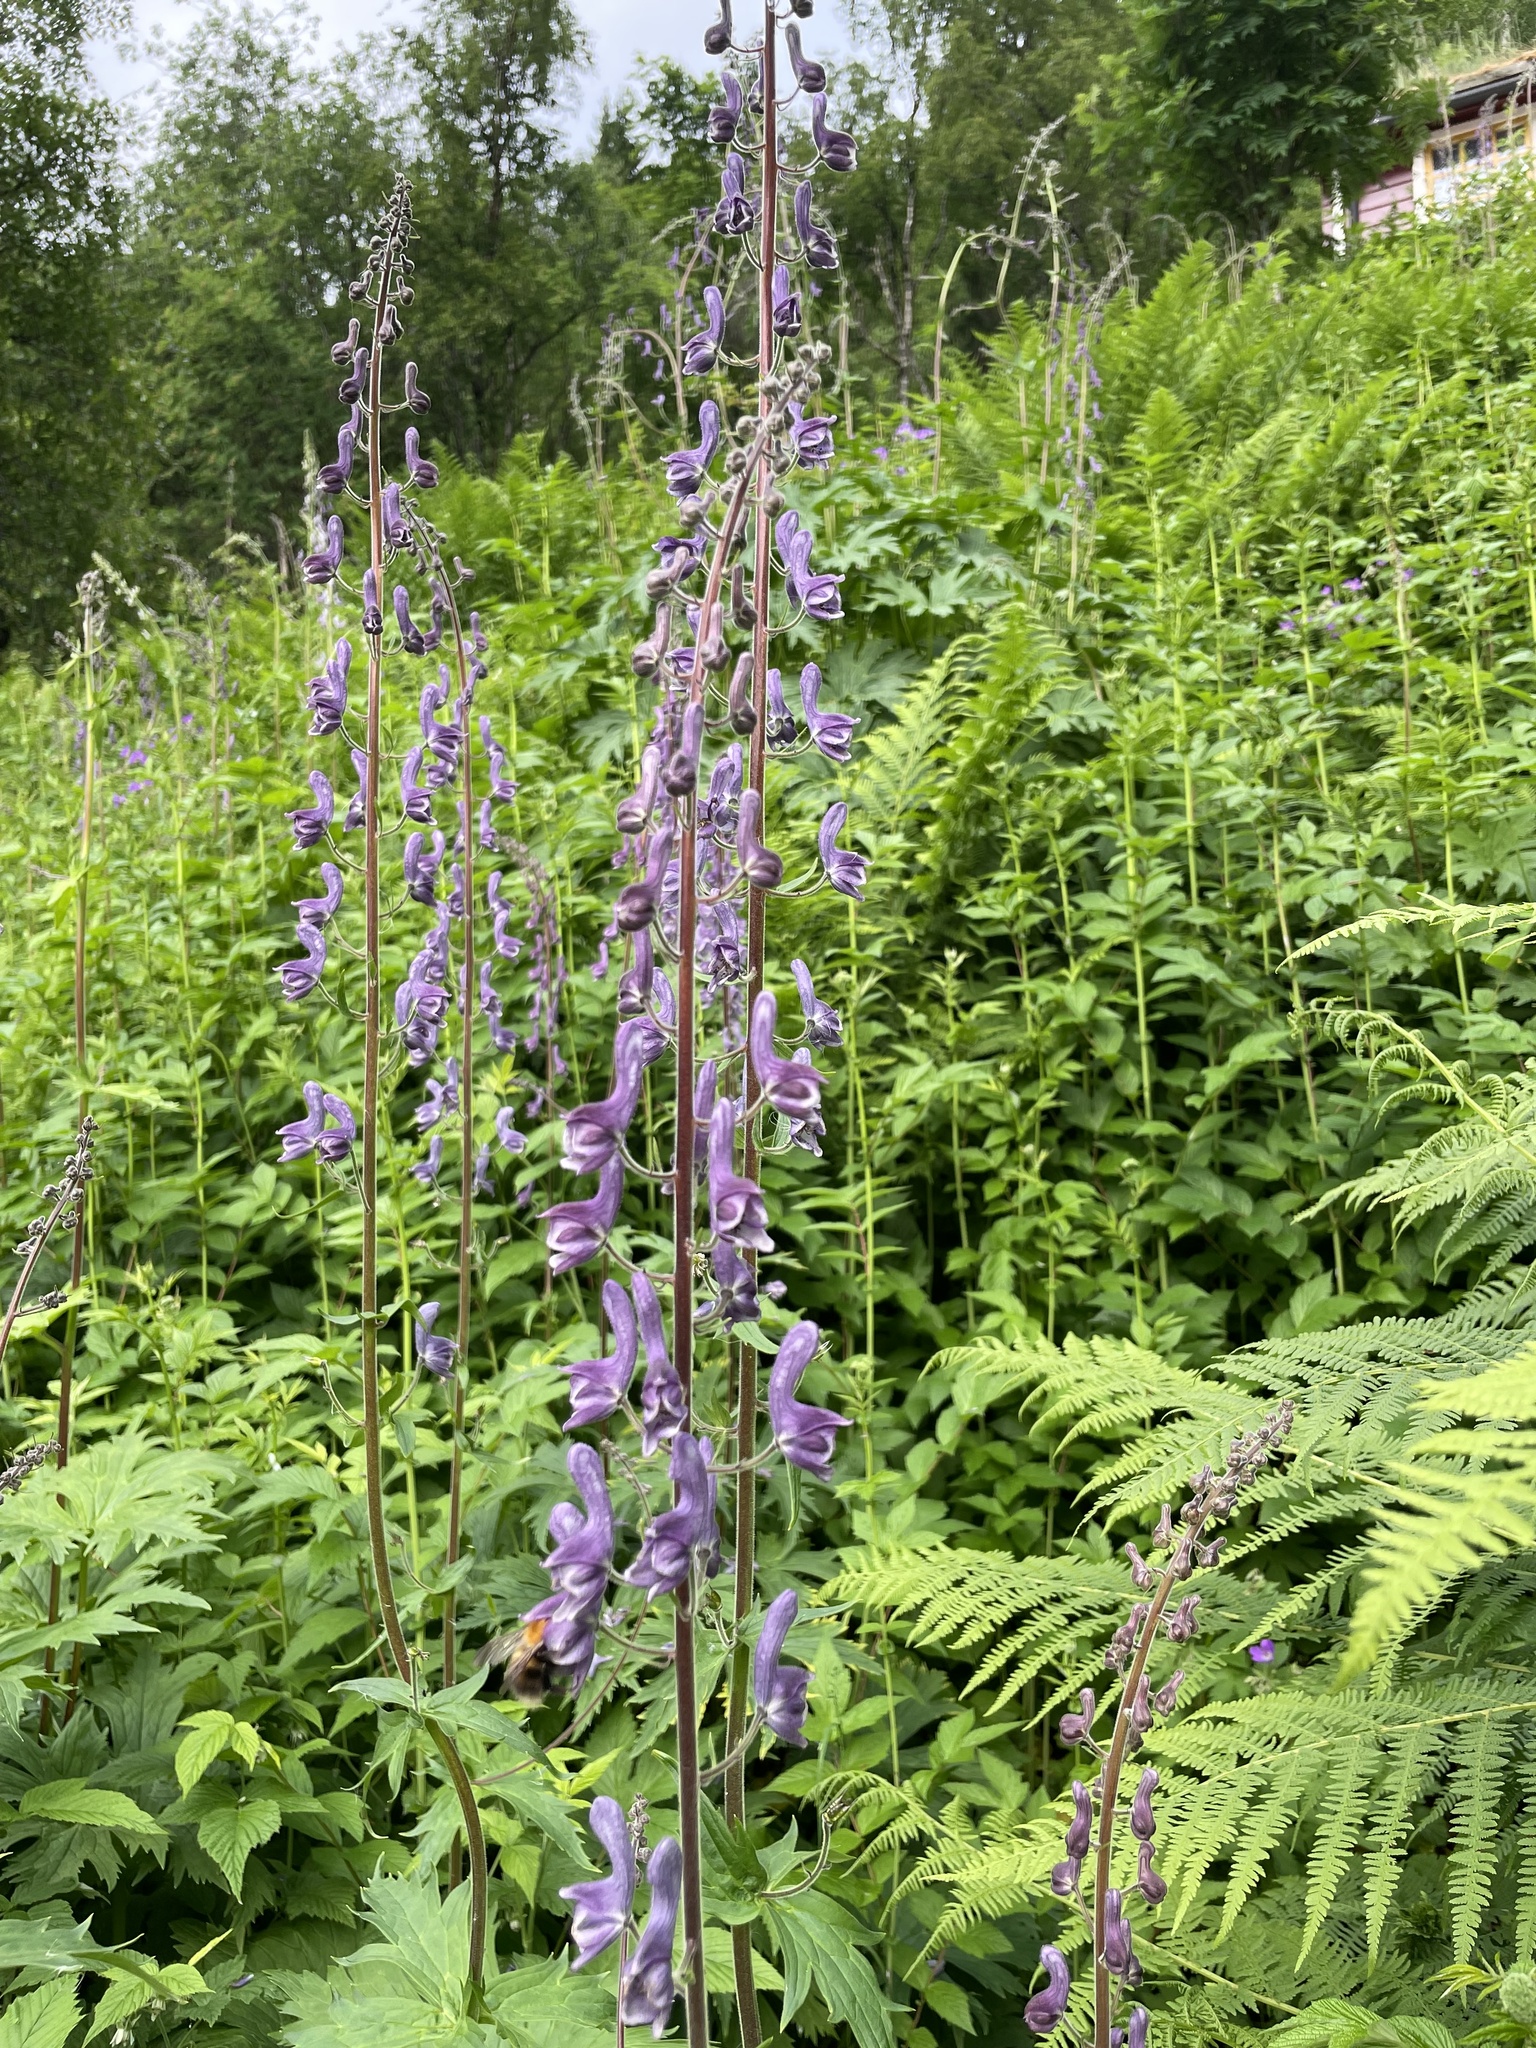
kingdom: Plantae
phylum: Tracheophyta
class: Magnoliopsida
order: Ranunculales
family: Ranunculaceae
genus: Aconitum
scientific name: Aconitum septentrionale
